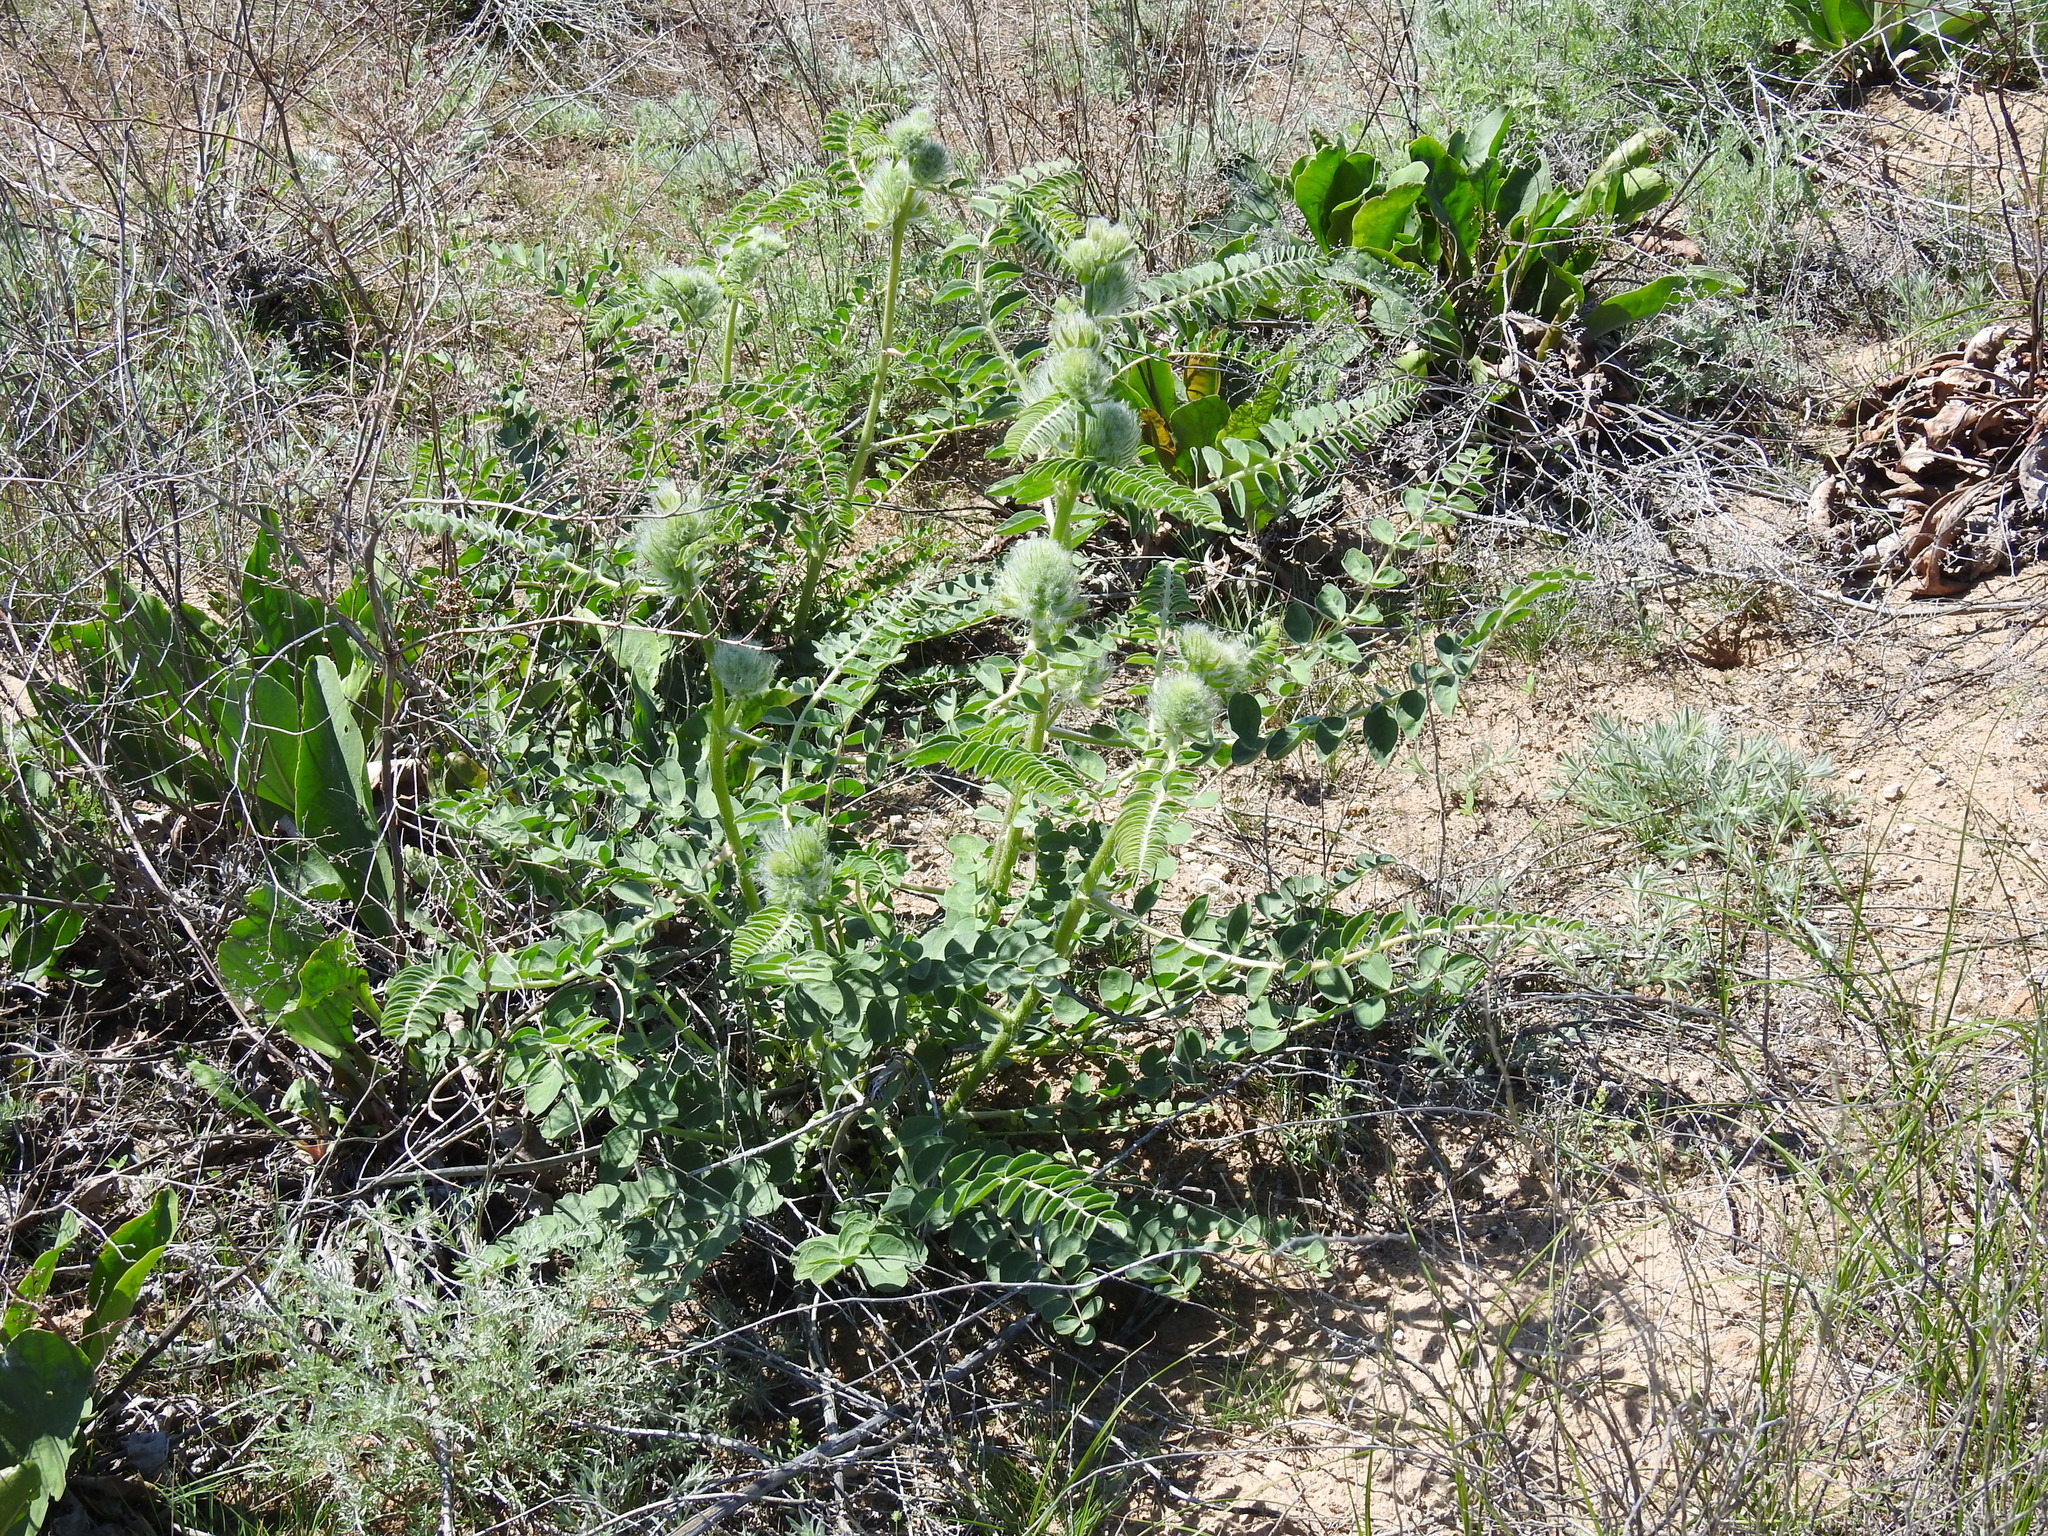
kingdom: Plantae
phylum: Tracheophyta
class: Magnoliopsida
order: Fabales
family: Fabaceae
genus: Astragalus
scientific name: Astragalus vulpinus
